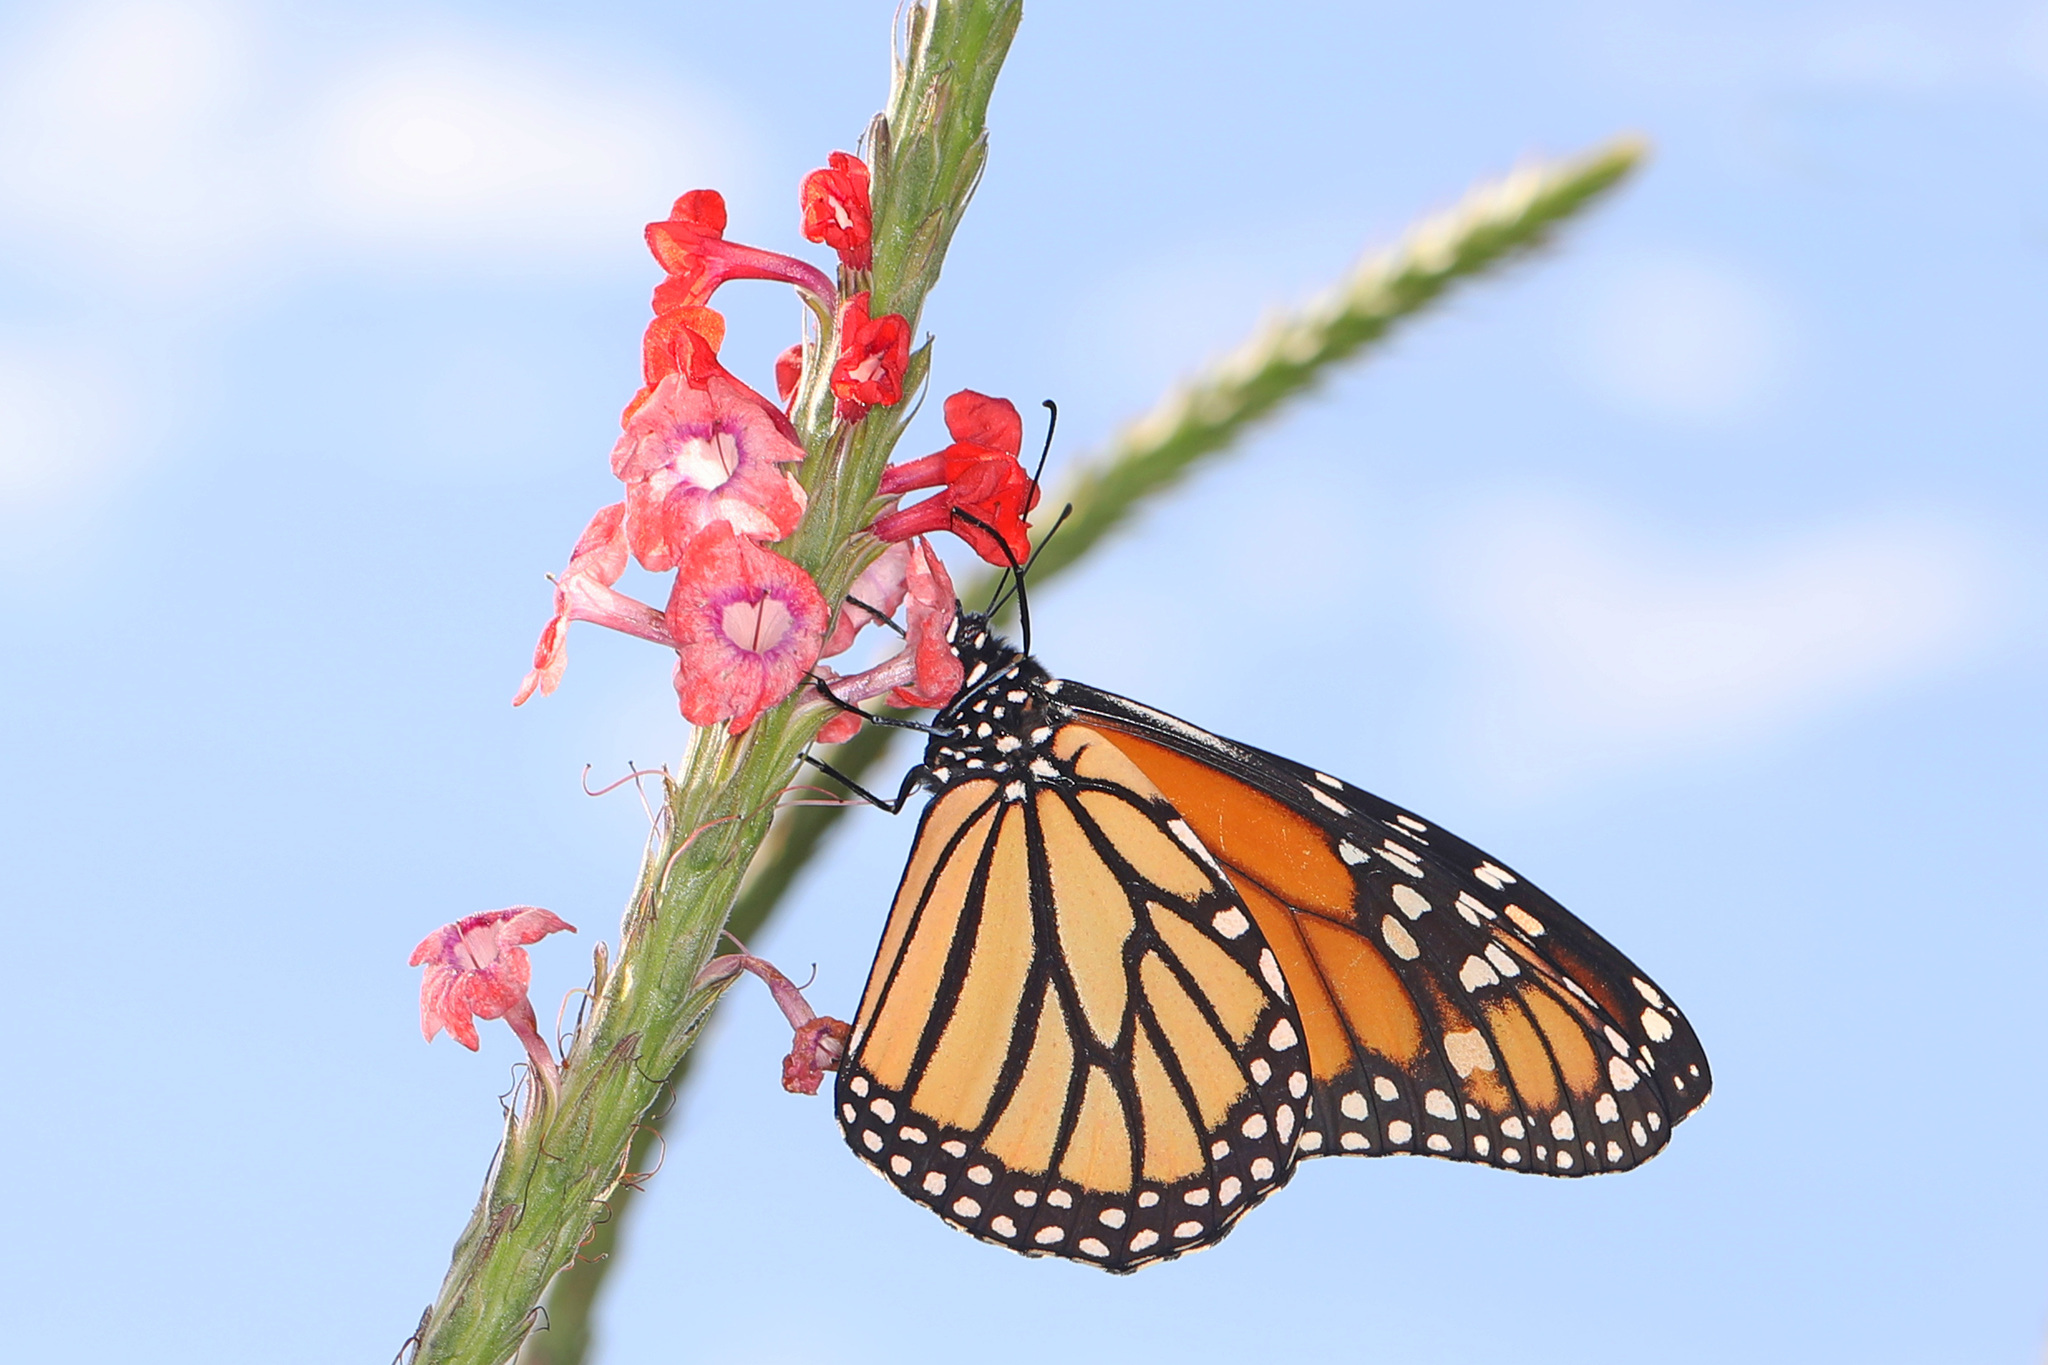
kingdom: Animalia
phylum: Arthropoda
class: Insecta
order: Lepidoptera
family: Nymphalidae
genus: Danaus
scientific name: Danaus plexippus
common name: Monarch
